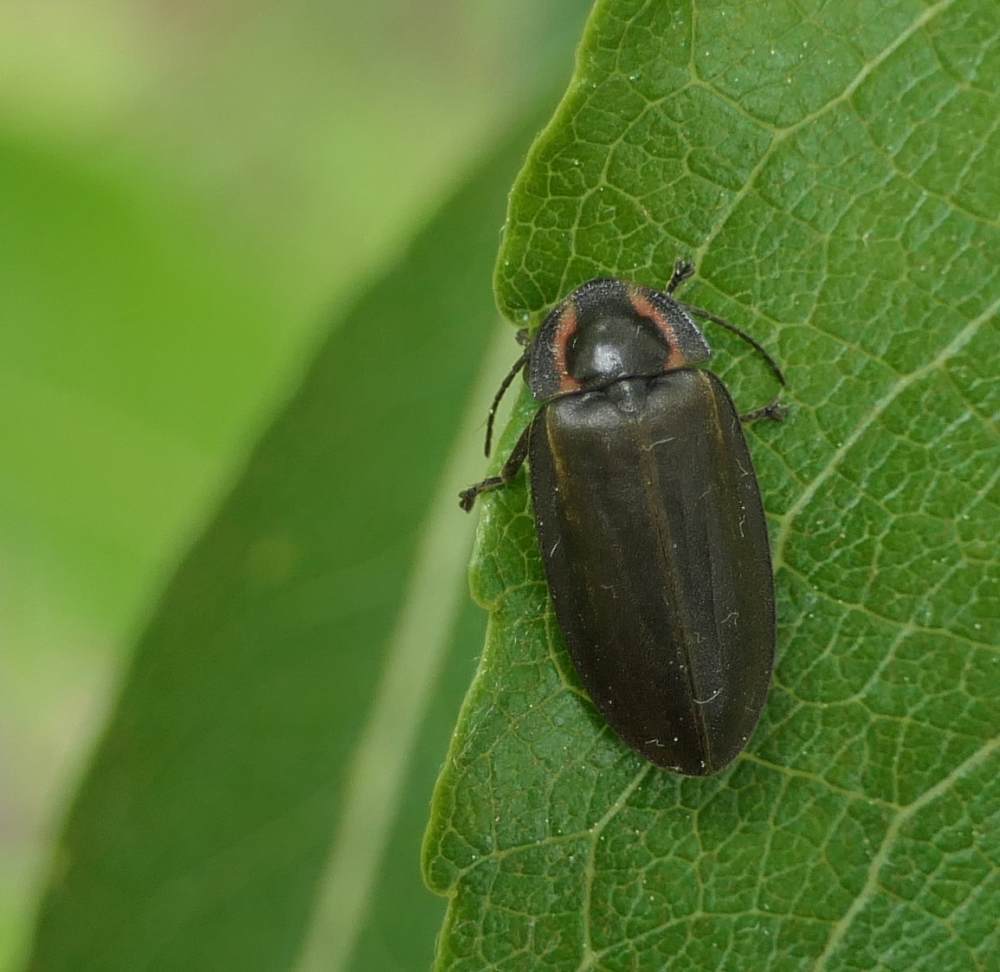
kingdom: Animalia
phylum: Arthropoda
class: Insecta
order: Coleoptera
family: Lampyridae
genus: Photinus
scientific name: Photinus corrusca
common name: Winter firefly
